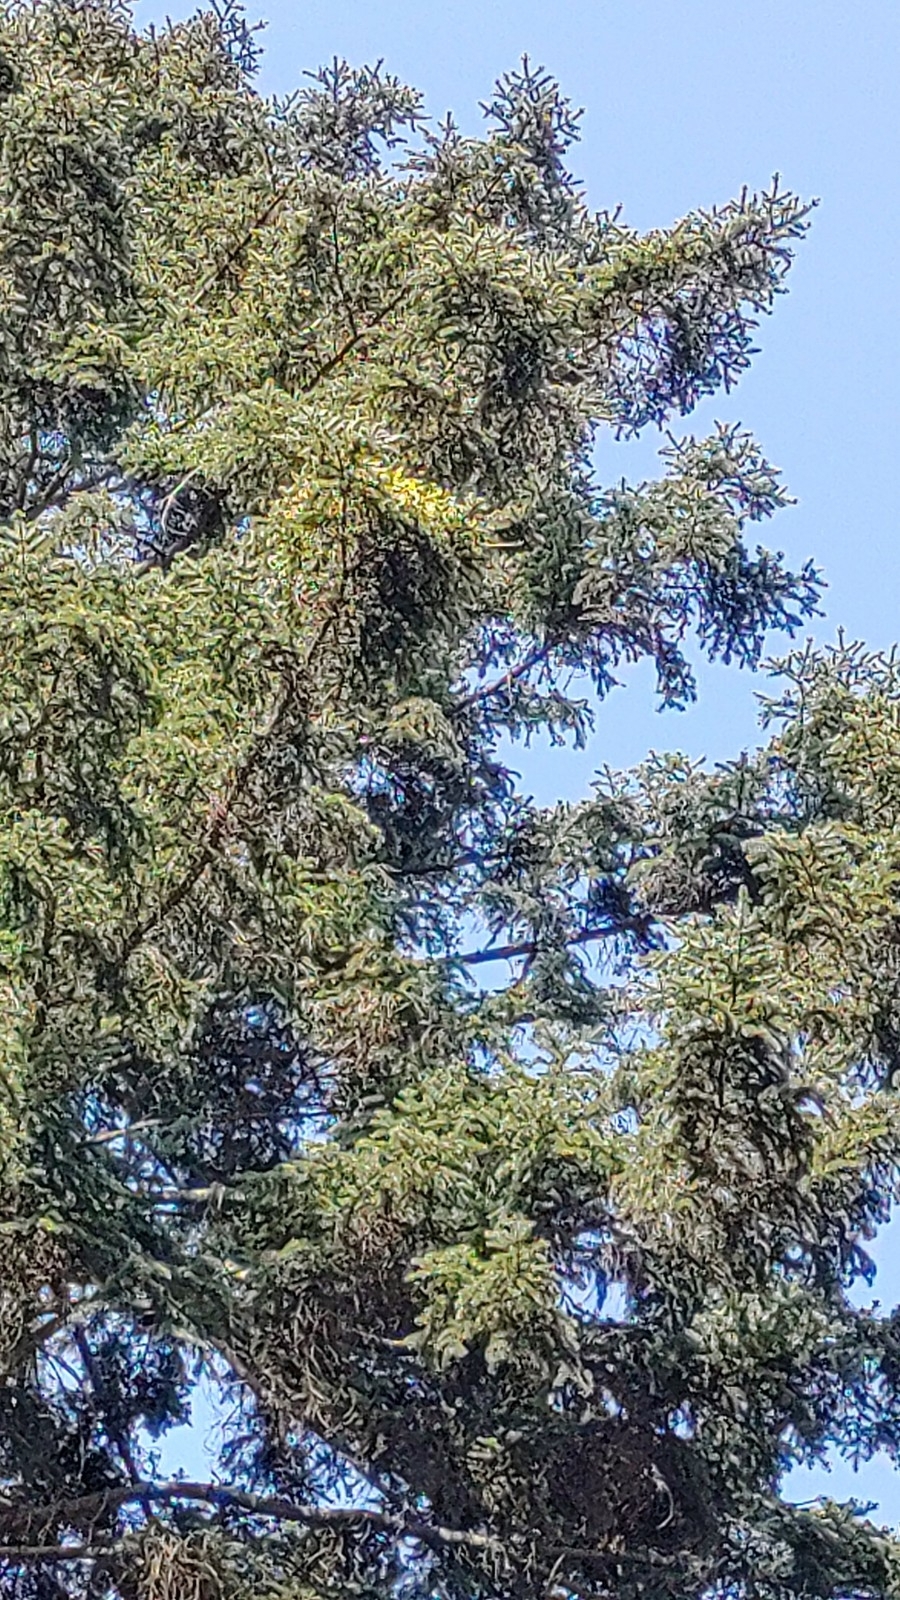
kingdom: Plantae
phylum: Tracheophyta
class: Magnoliopsida
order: Santalales
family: Viscaceae
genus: Viscum
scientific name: Viscum album
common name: Mistletoe
